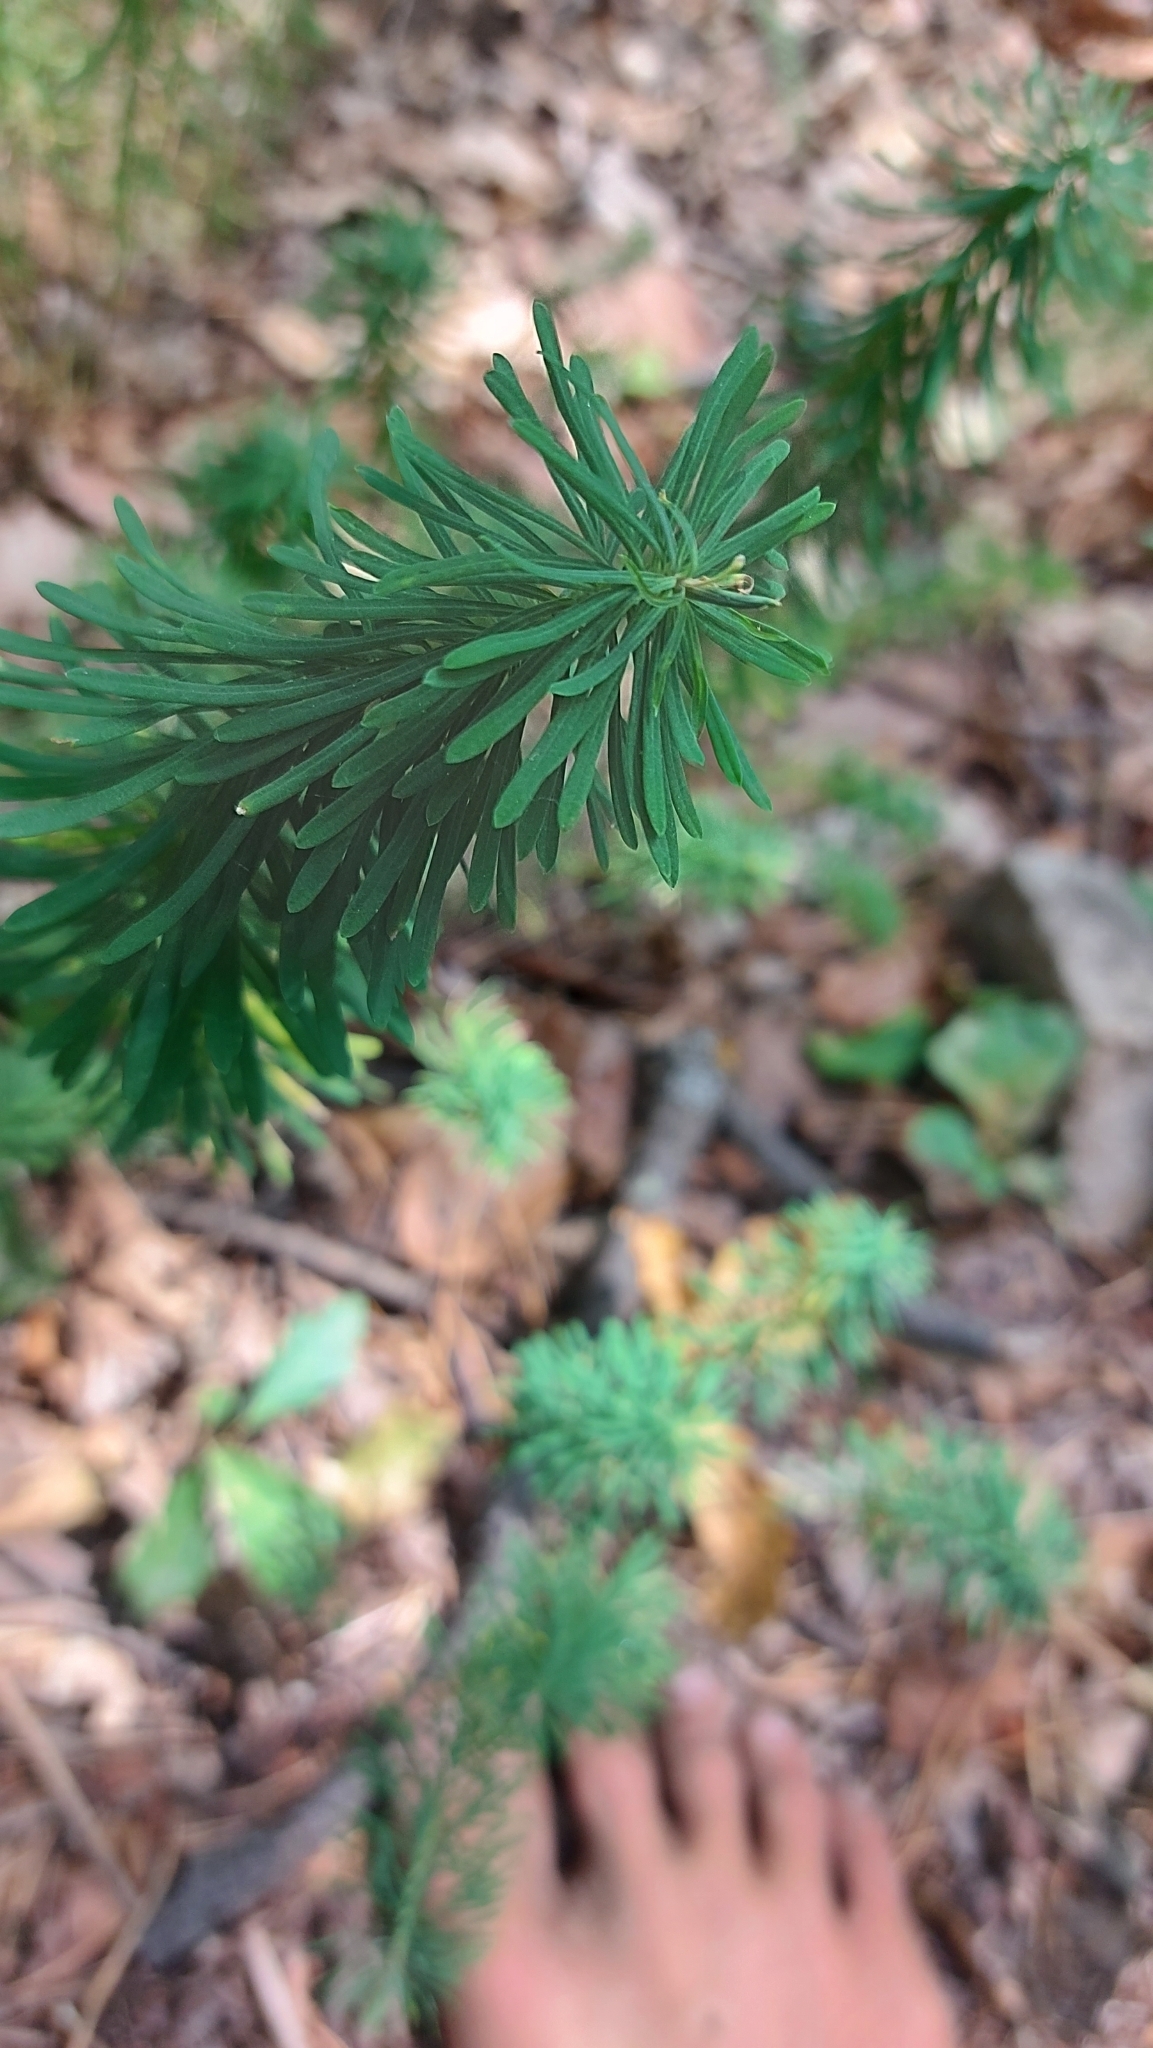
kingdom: Plantae
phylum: Tracheophyta
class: Magnoliopsida
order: Malpighiales
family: Euphorbiaceae
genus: Euphorbia
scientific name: Euphorbia cyparissias
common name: Cypress spurge
